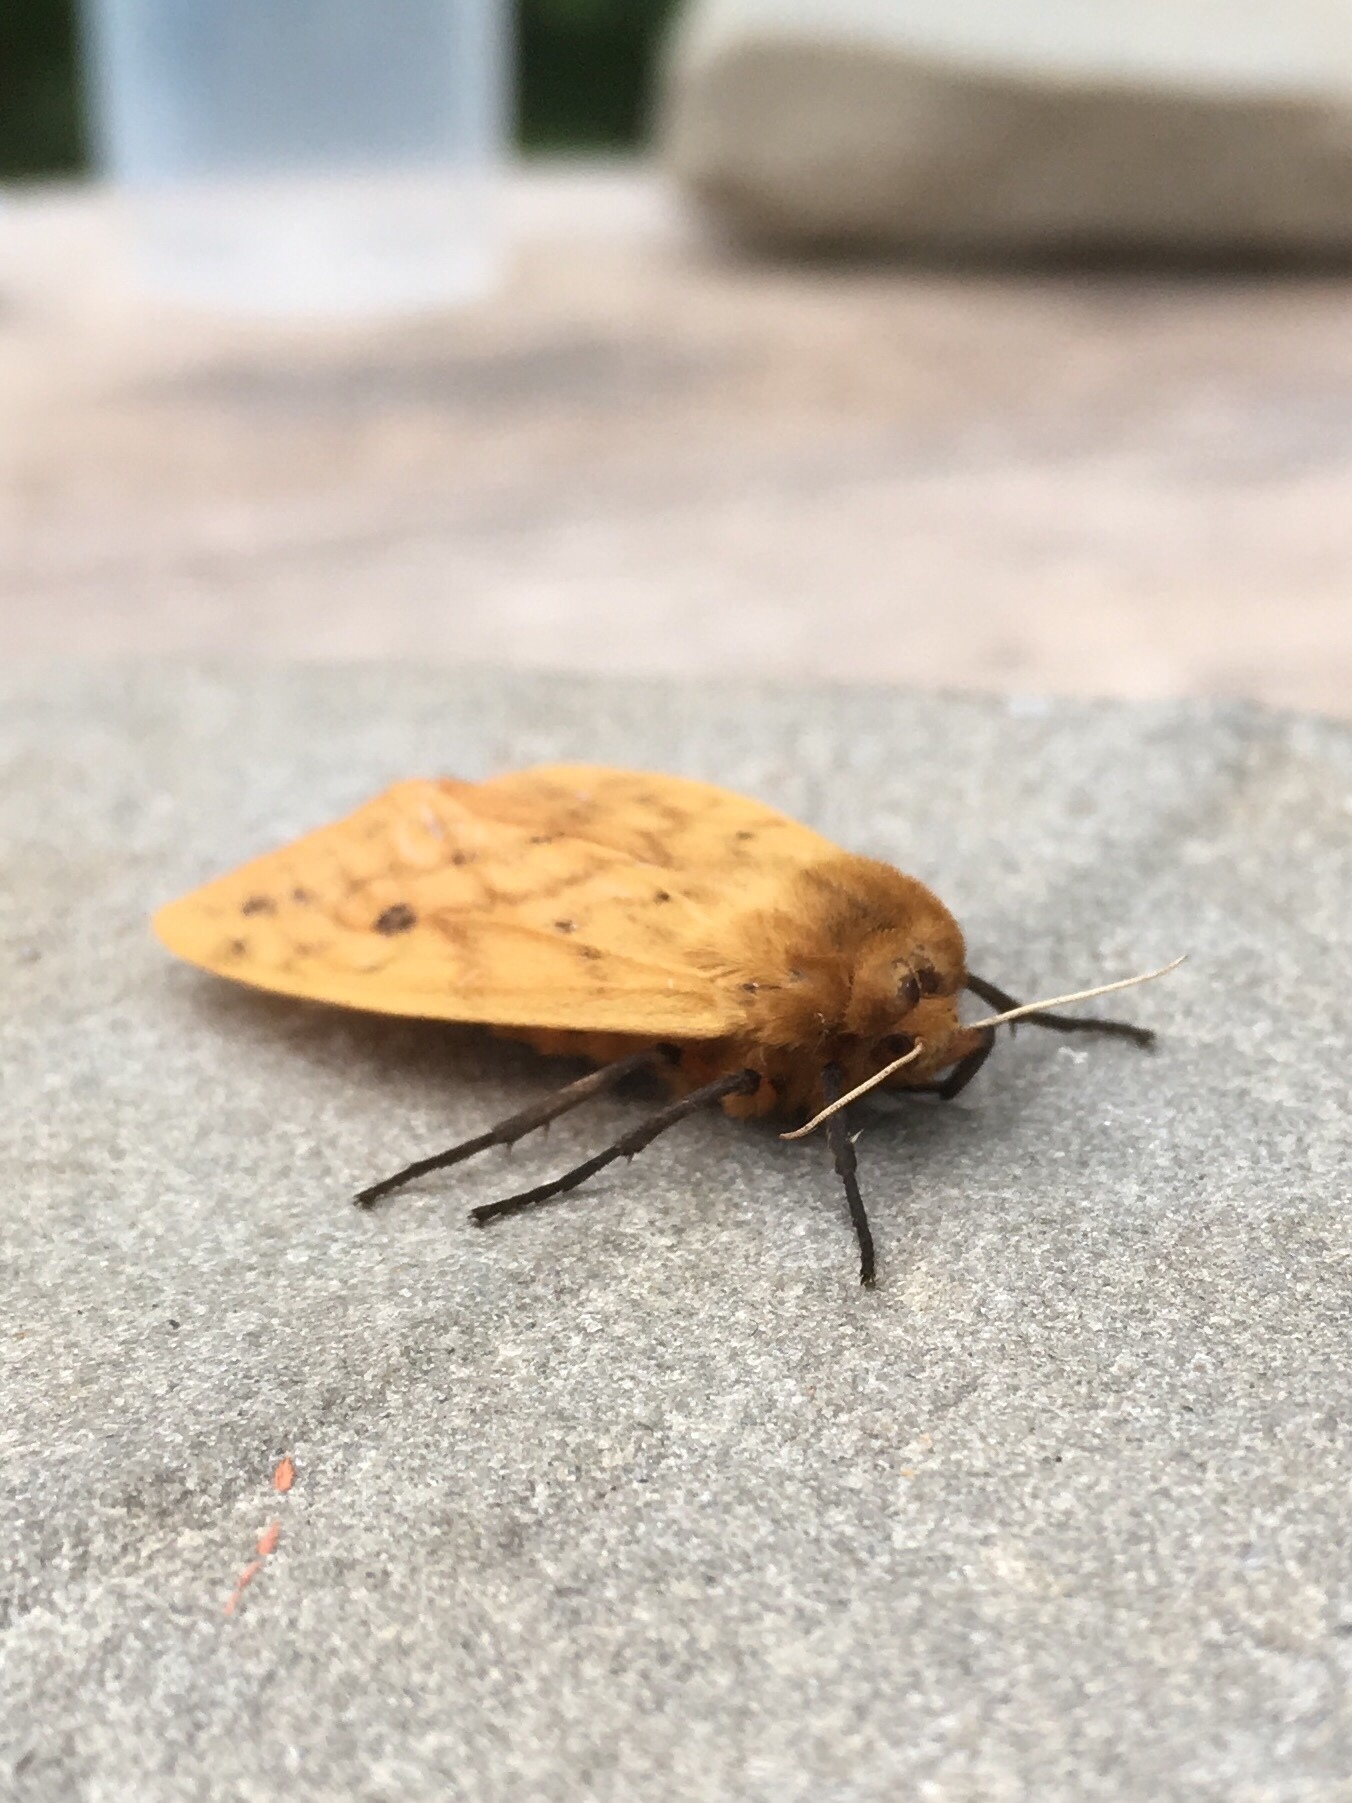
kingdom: Animalia
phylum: Arthropoda
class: Insecta
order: Lepidoptera
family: Erebidae
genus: Pyrrharctia
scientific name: Pyrrharctia isabella
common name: Isabella tiger moth
